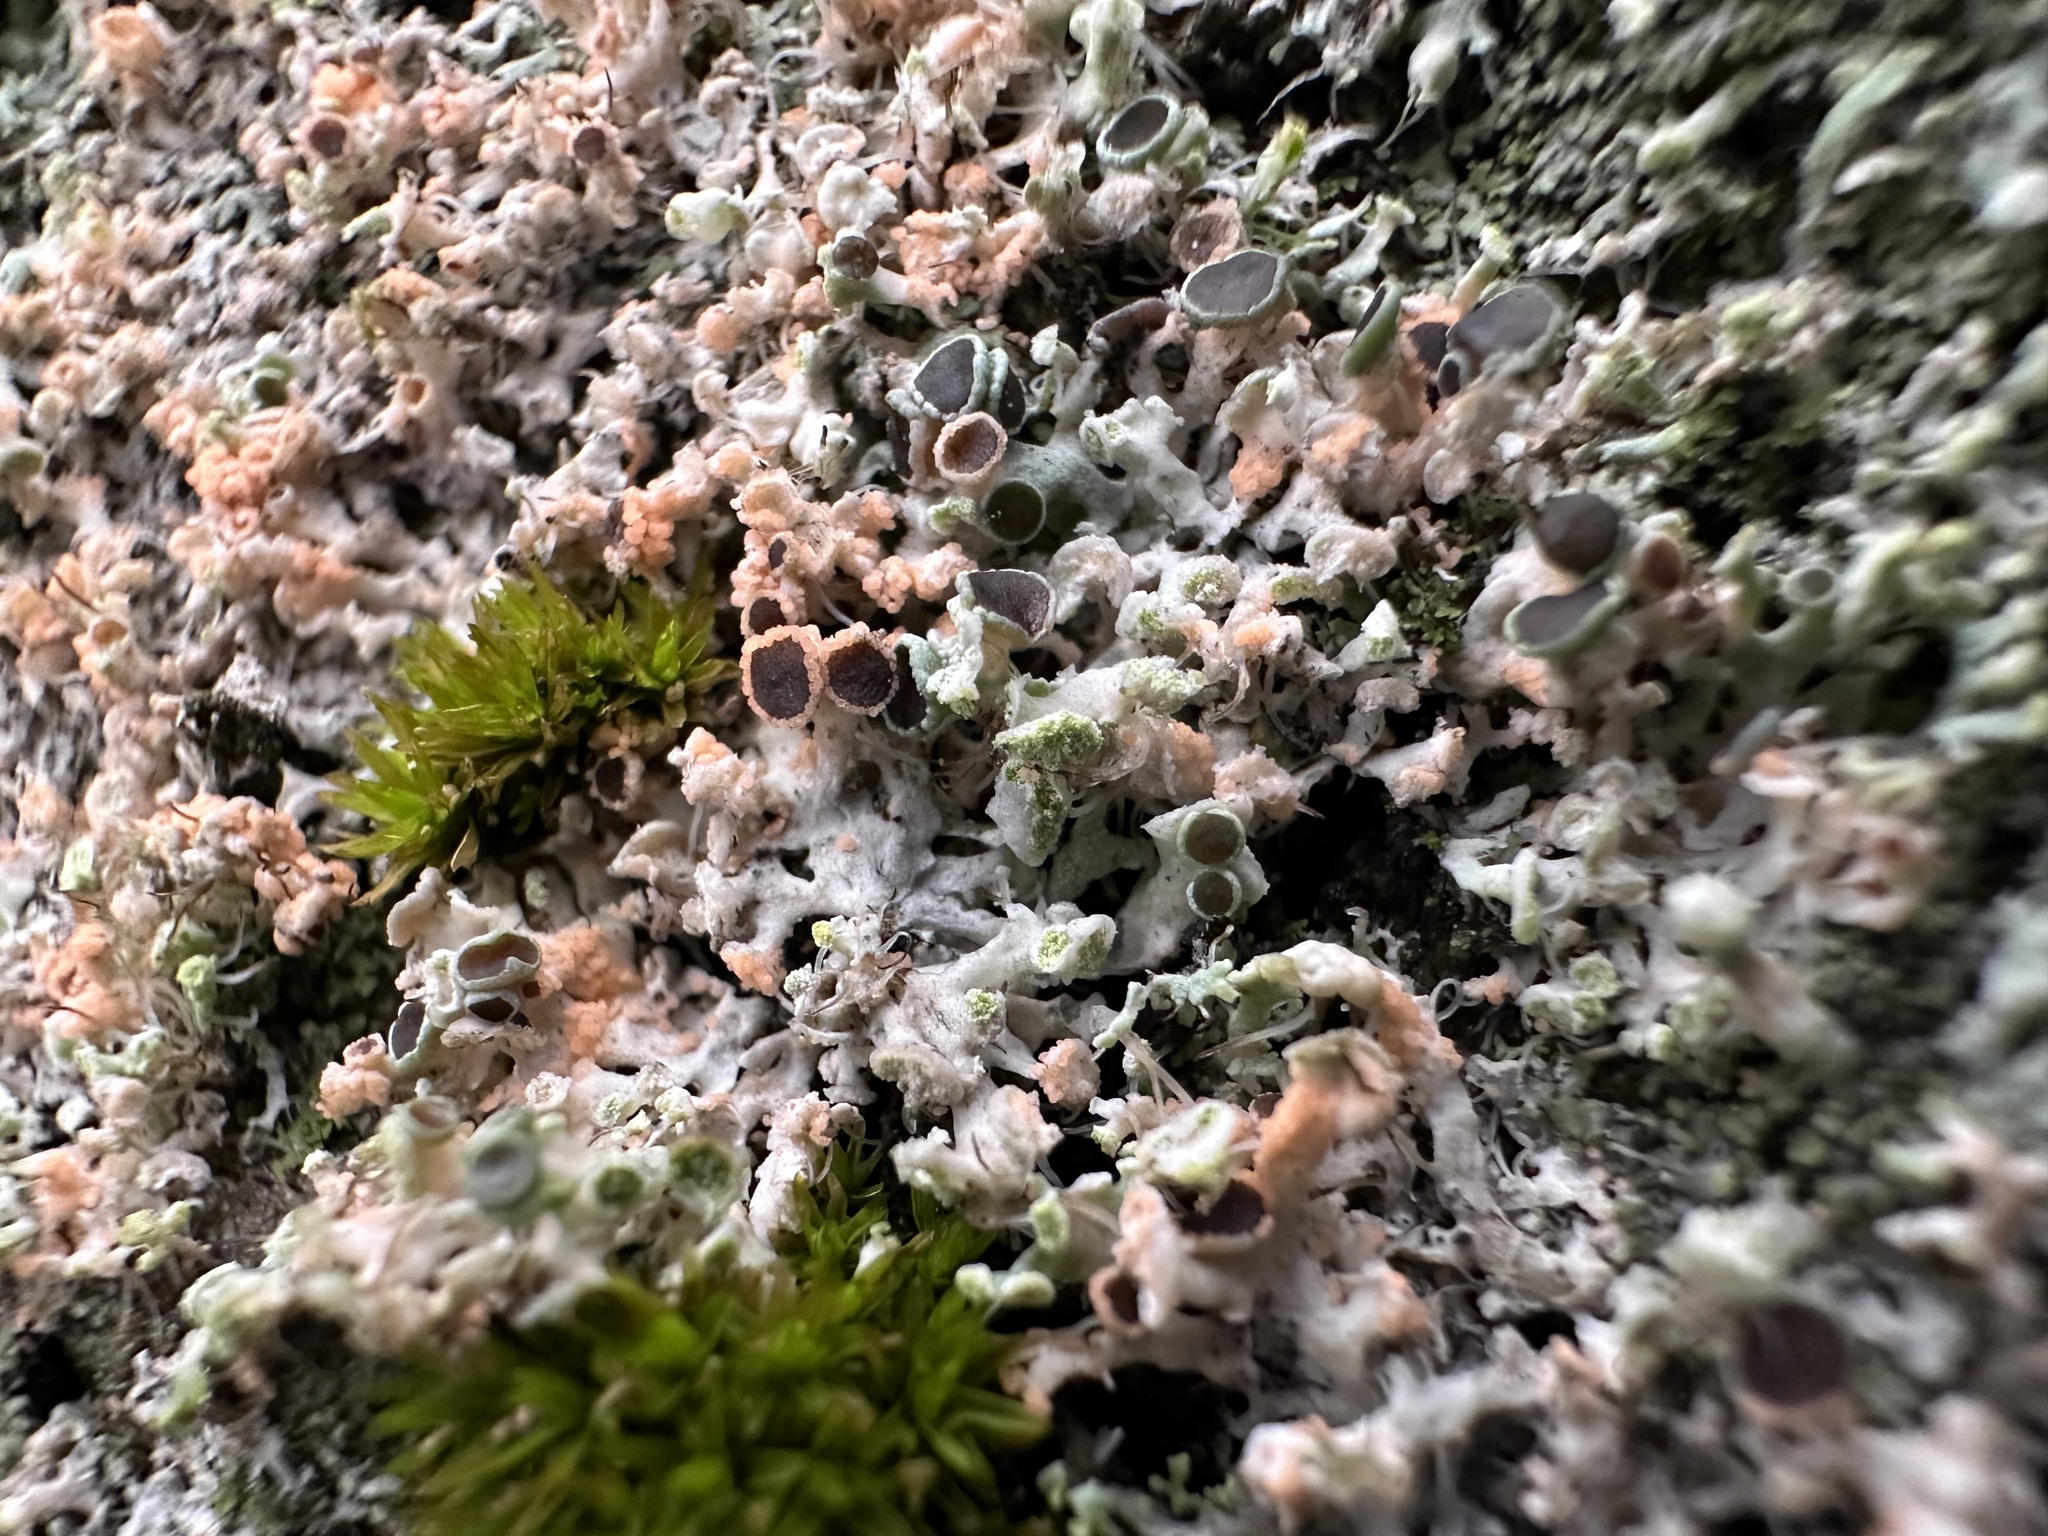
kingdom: Fungi
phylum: Basidiomycota
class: Agaricomycetes
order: Corticiales
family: Corticiaceae
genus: Erythricium
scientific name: Erythricium aurantiacum
